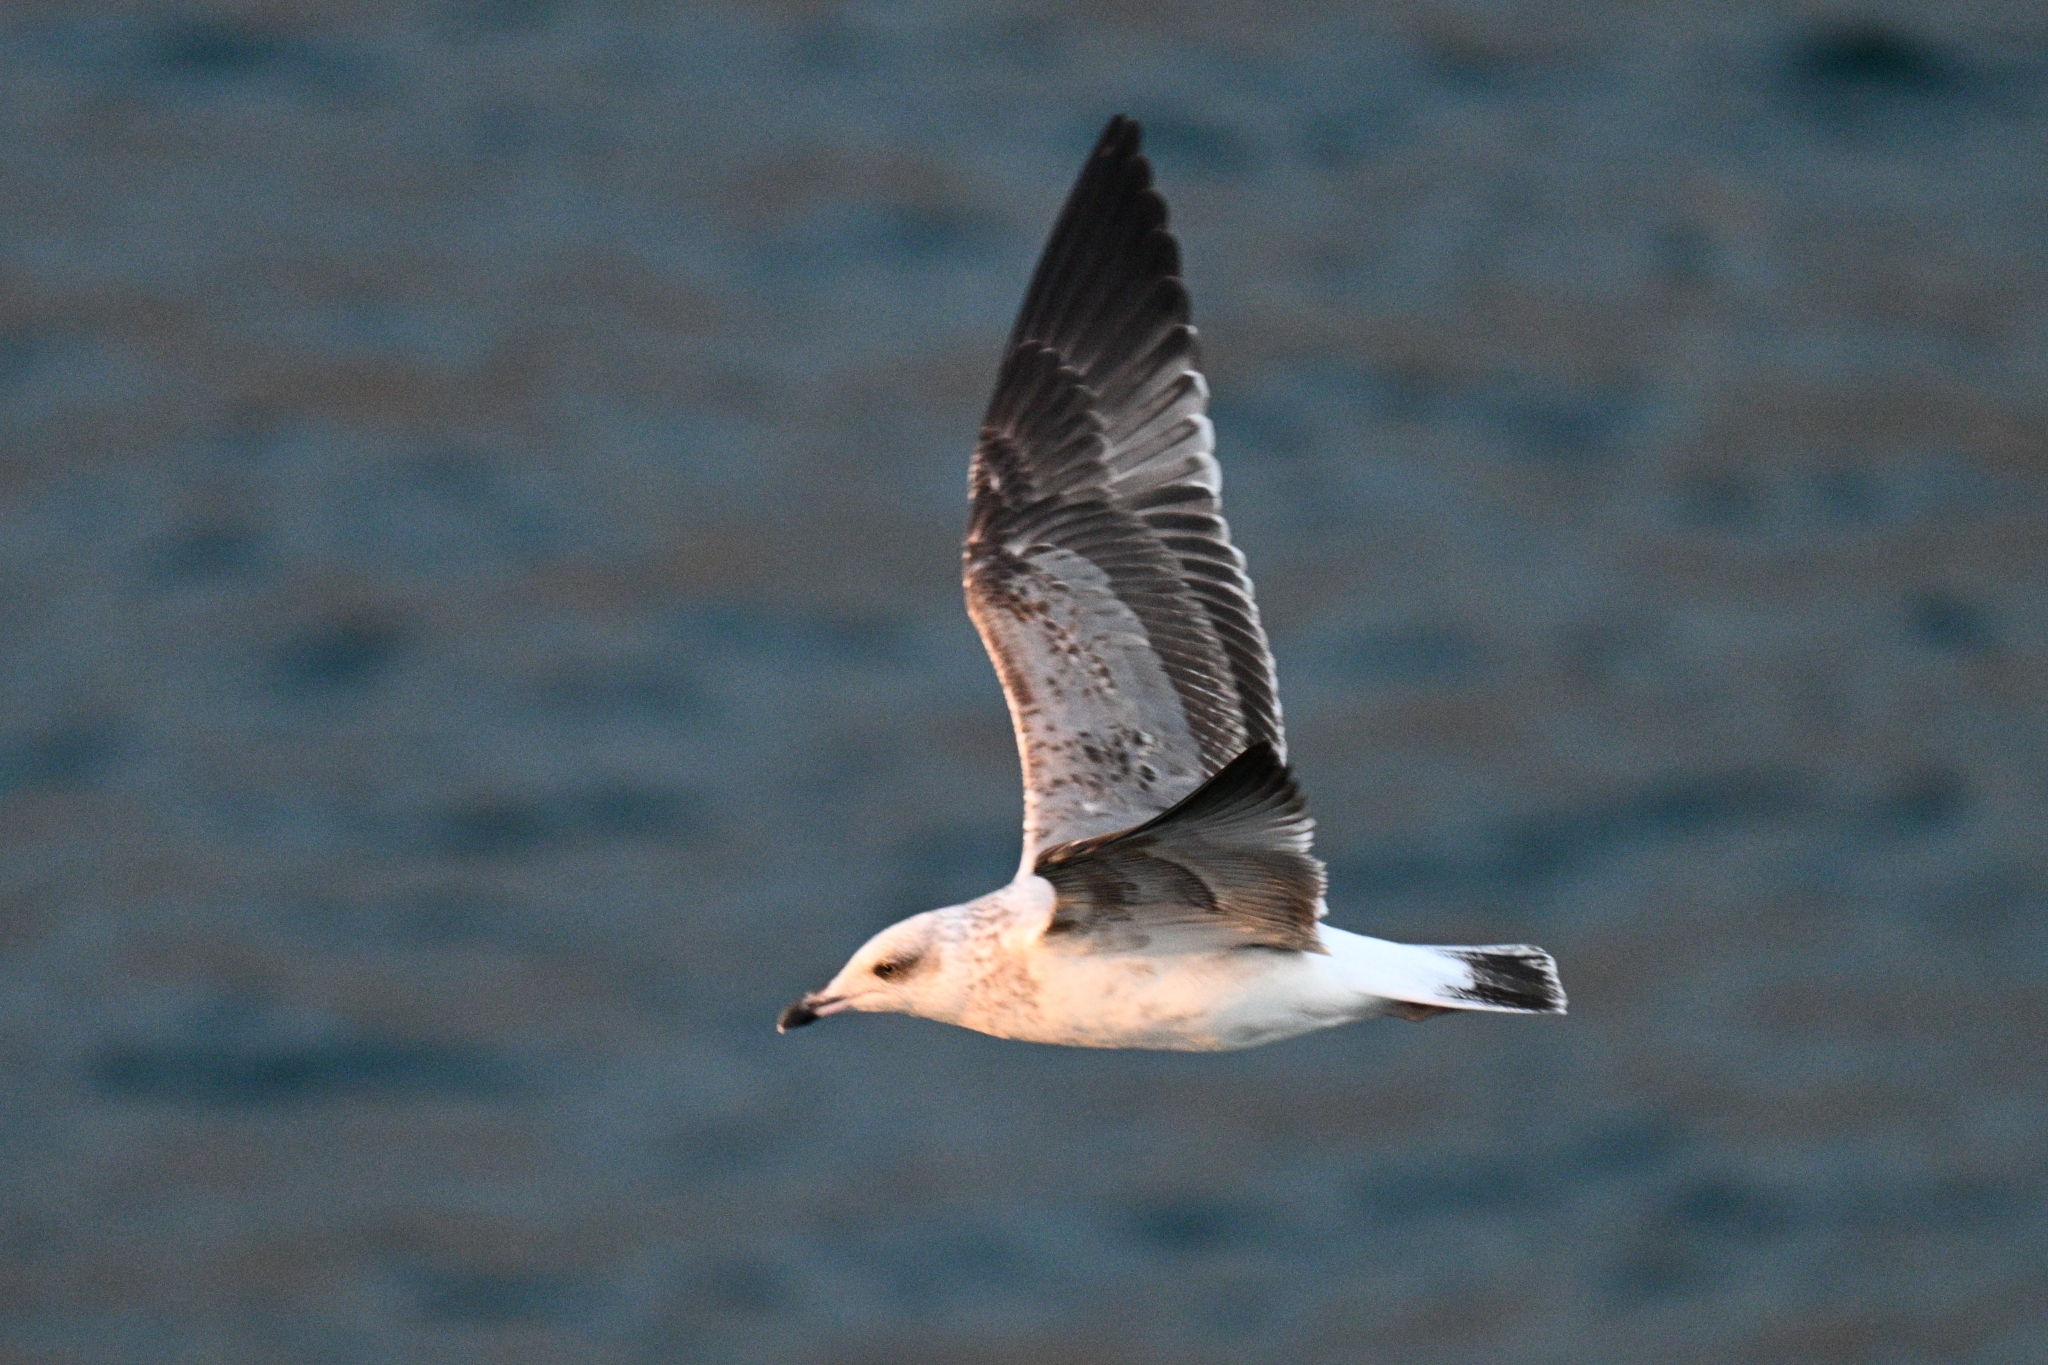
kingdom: Animalia
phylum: Chordata
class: Aves
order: Charadriiformes
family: Laridae
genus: Larus
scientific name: Larus michahellis
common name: Yellow-legged gull
